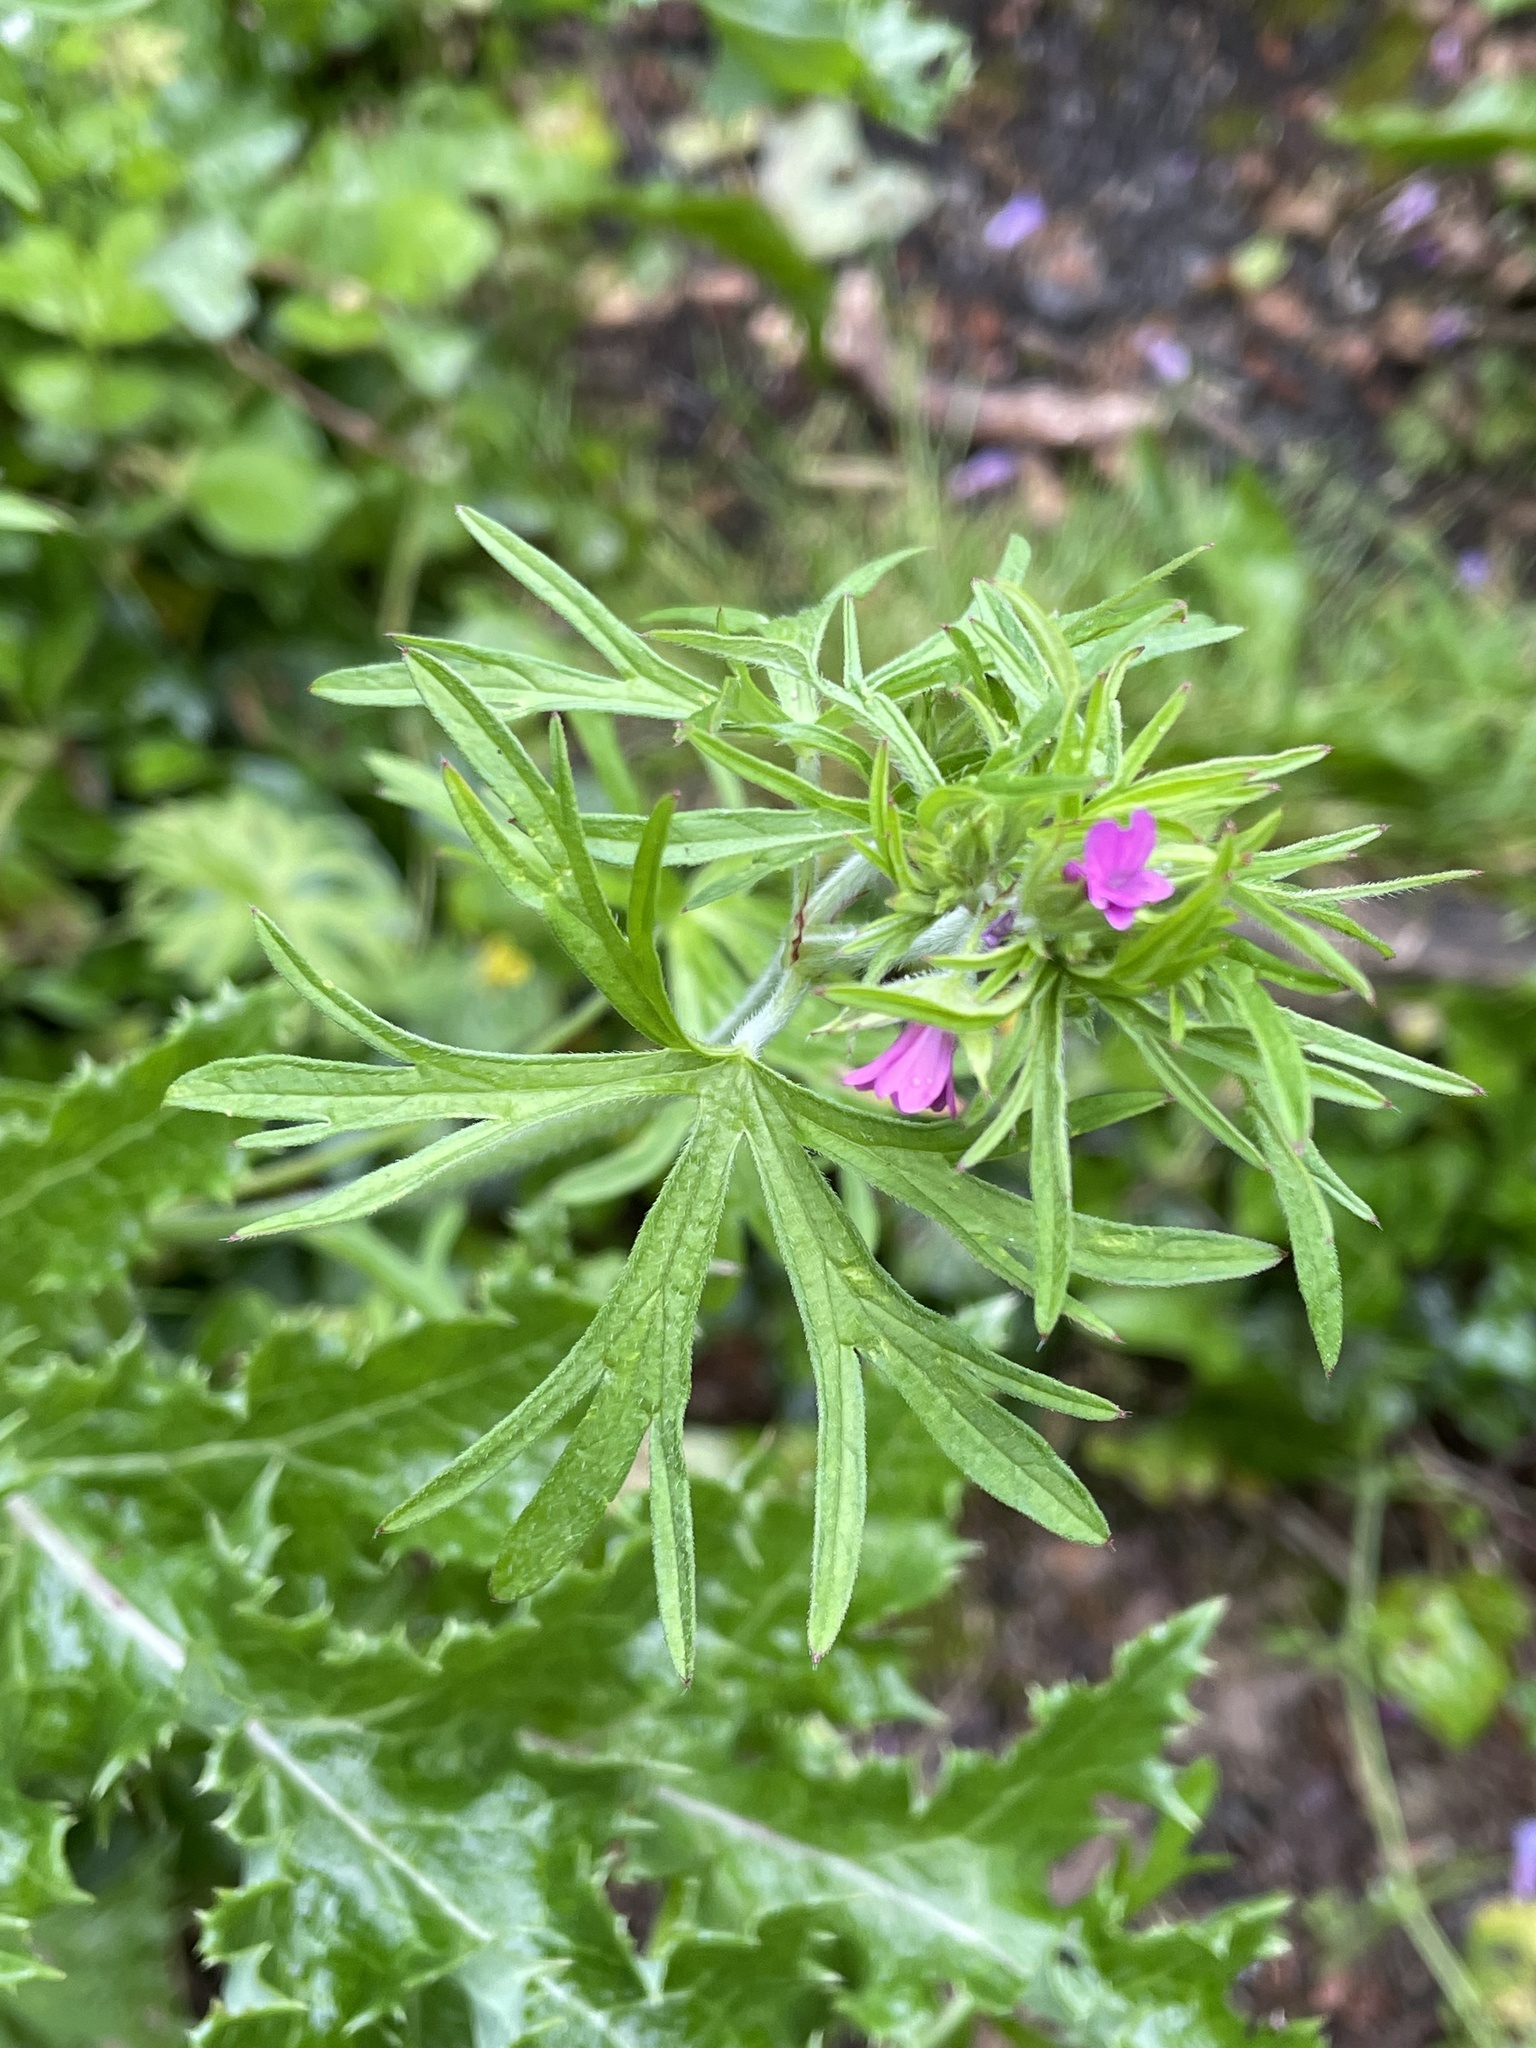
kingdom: Plantae
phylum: Tracheophyta
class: Magnoliopsida
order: Geraniales
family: Geraniaceae
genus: Geranium
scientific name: Geranium dissectum
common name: Cut-leaved crane's-bill
